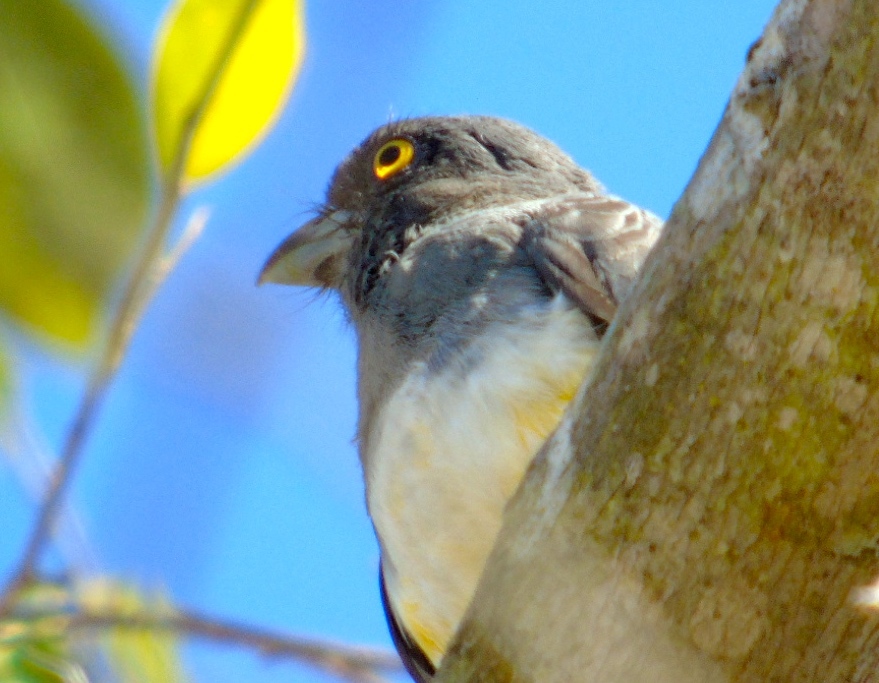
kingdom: Animalia
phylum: Chordata
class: Aves
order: Trogoniformes
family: Trogonidae
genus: Trogon
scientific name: Trogon citreolus
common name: Citreoline trogon
